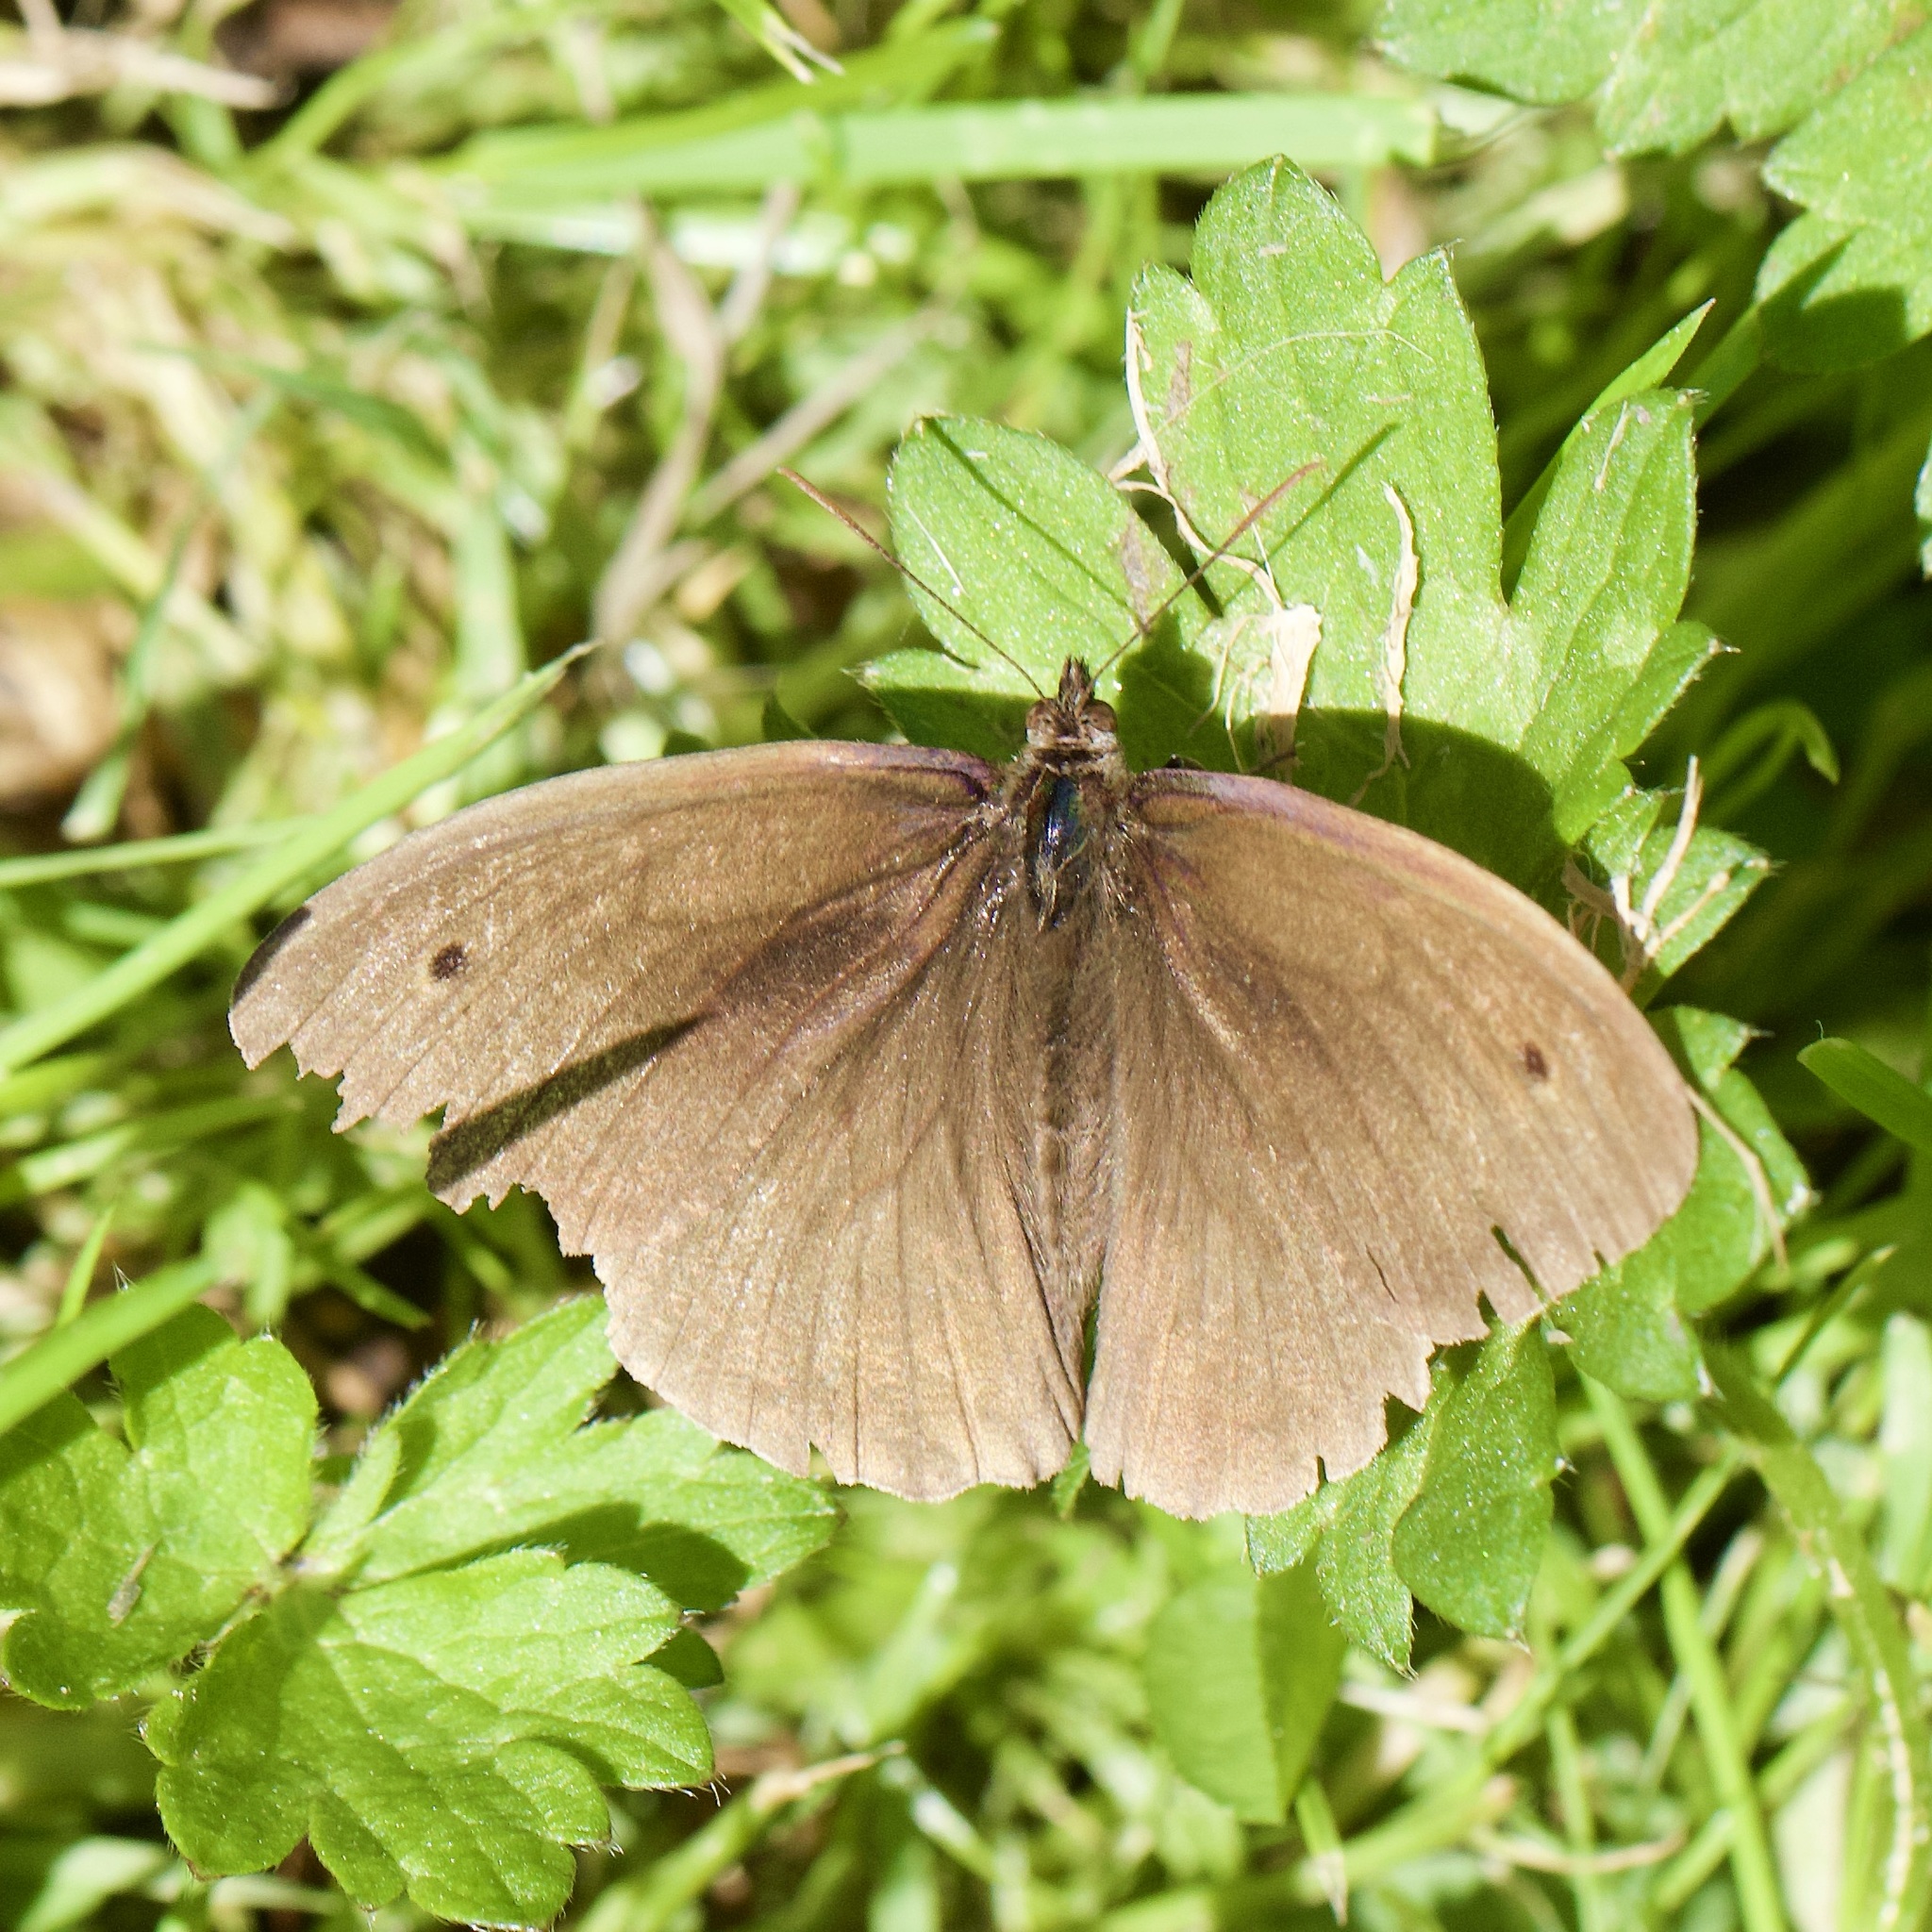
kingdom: Animalia
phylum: Arthropoda
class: Insecta
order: Lepidoptera
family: Nymphalidae
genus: Maniola
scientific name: Maniola jurtina
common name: Meadow brown
